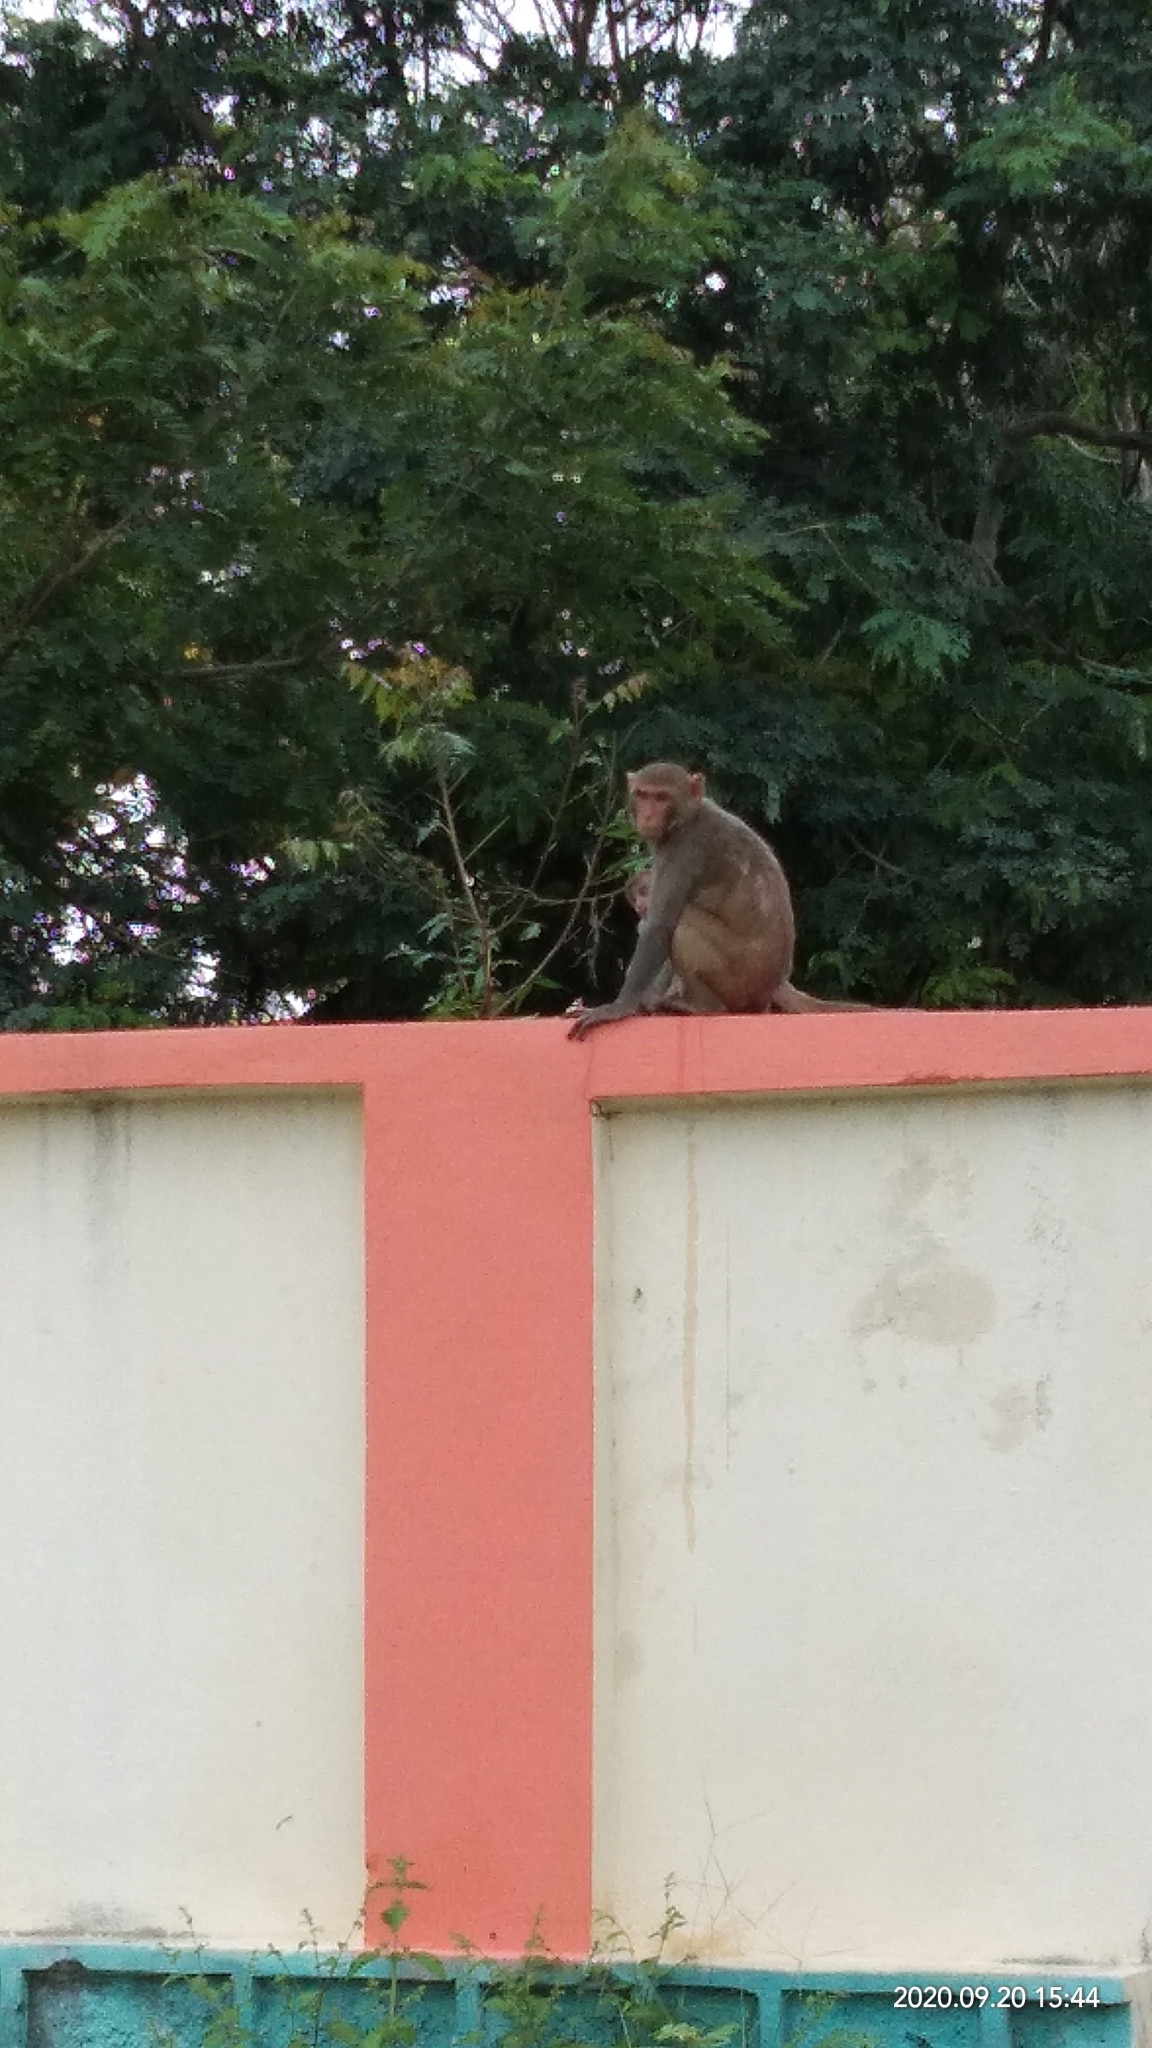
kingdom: Animalia
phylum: Chordata
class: Mammalia
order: Primates
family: Cercopithecidae
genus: Macaca
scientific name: Macaca mulatta
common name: Rhesus monkey
